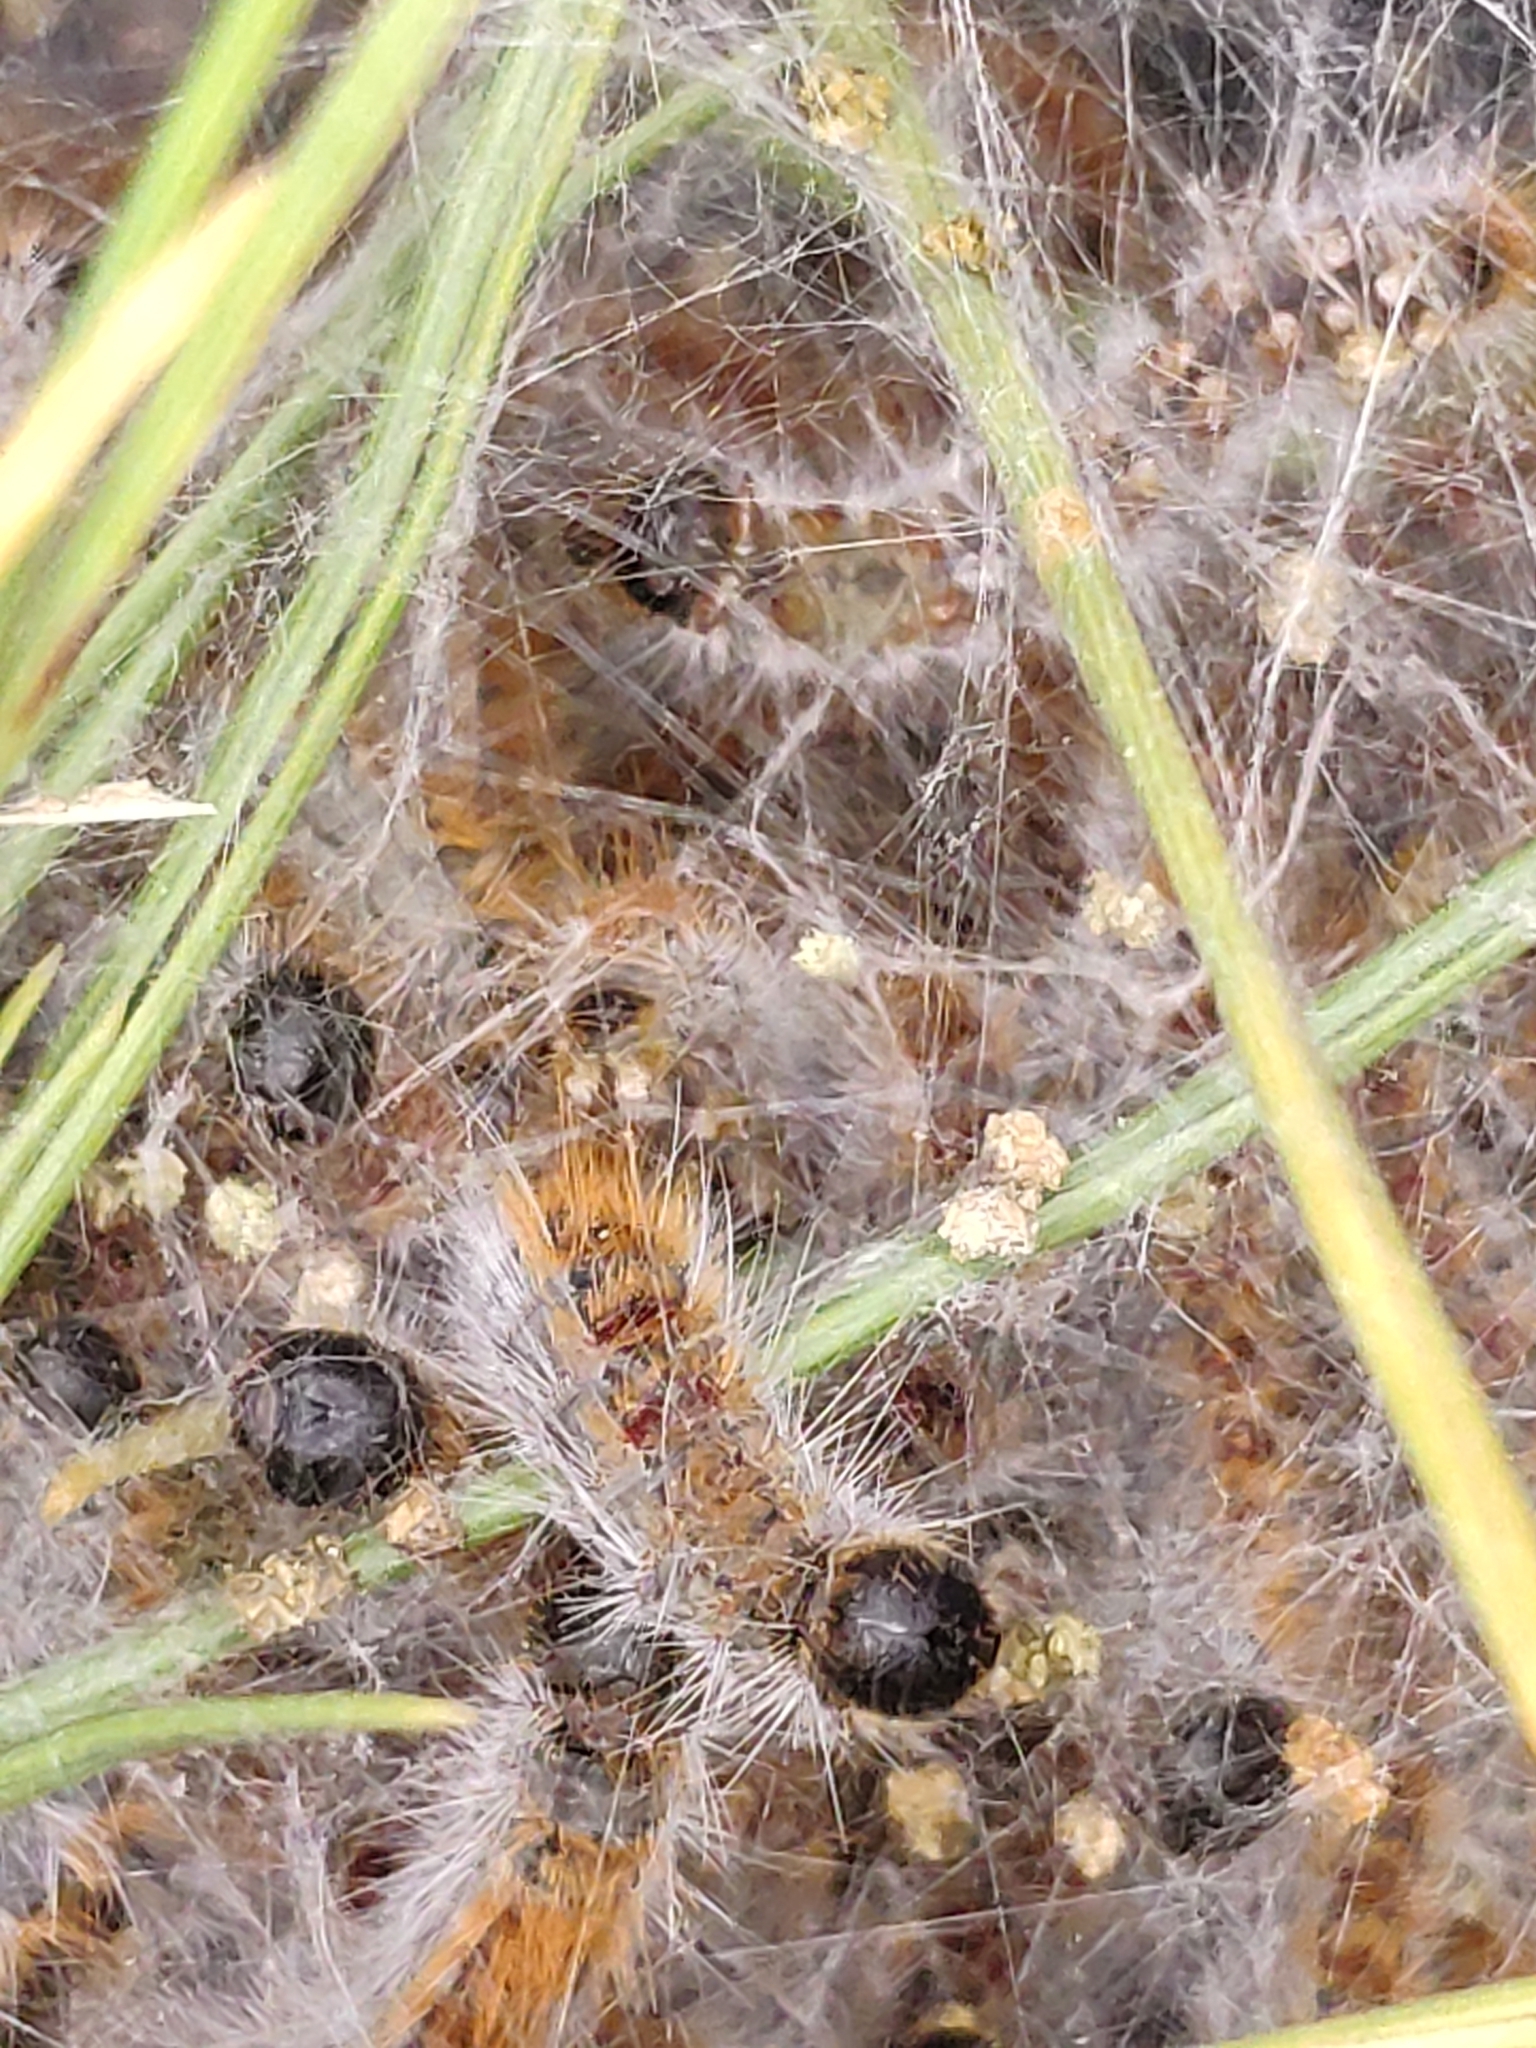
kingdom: Animalia
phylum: Arthropoda
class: Insecta
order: Lepidoptera
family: Notodontidae
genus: Thaumetopoea
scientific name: Thaumetopoea pityocampa
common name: Pine processionary
